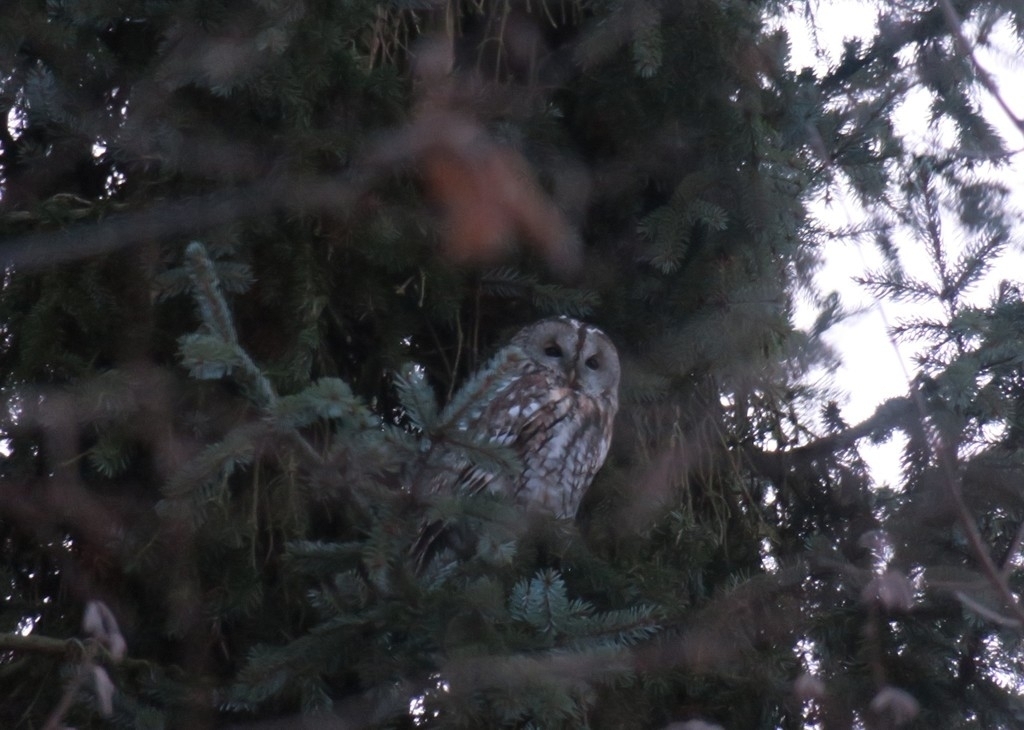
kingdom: Animalia
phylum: Chordata
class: Aves
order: Strigiformes
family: Strigidae
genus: Strix
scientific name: Strix aluco
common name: Tawny owl
